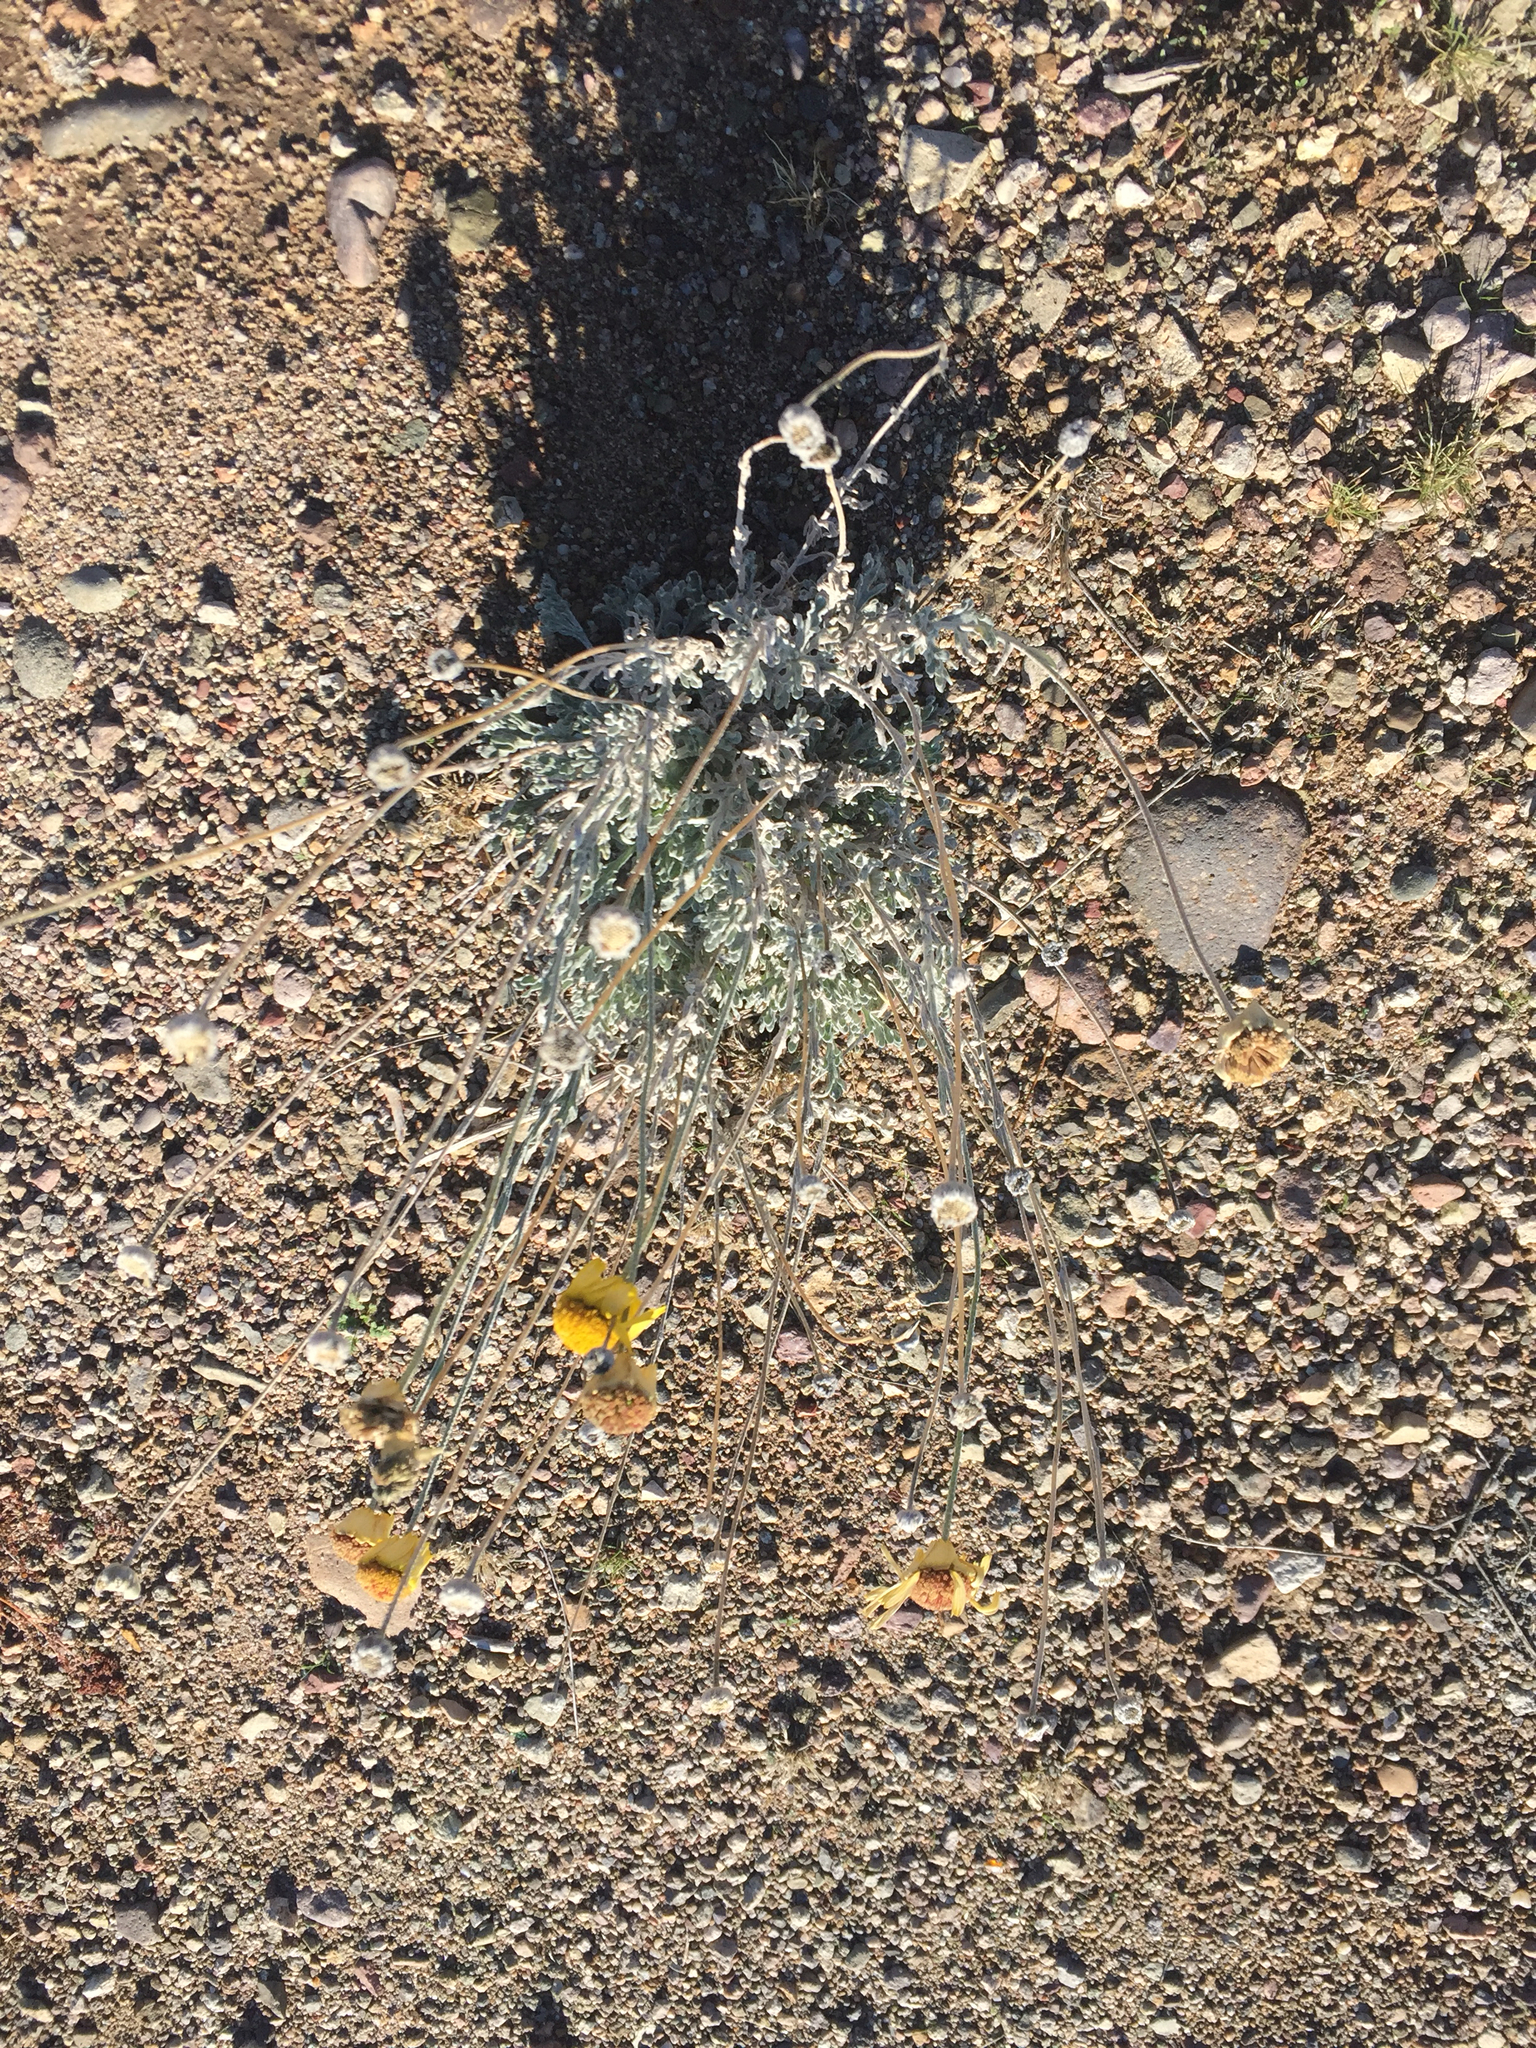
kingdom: Plantae
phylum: Tracheophyta
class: Magnoliopsida
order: Asterales
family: Asteraceae
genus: Baileya
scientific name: Baileya multiradiata
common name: Desert-marigold
